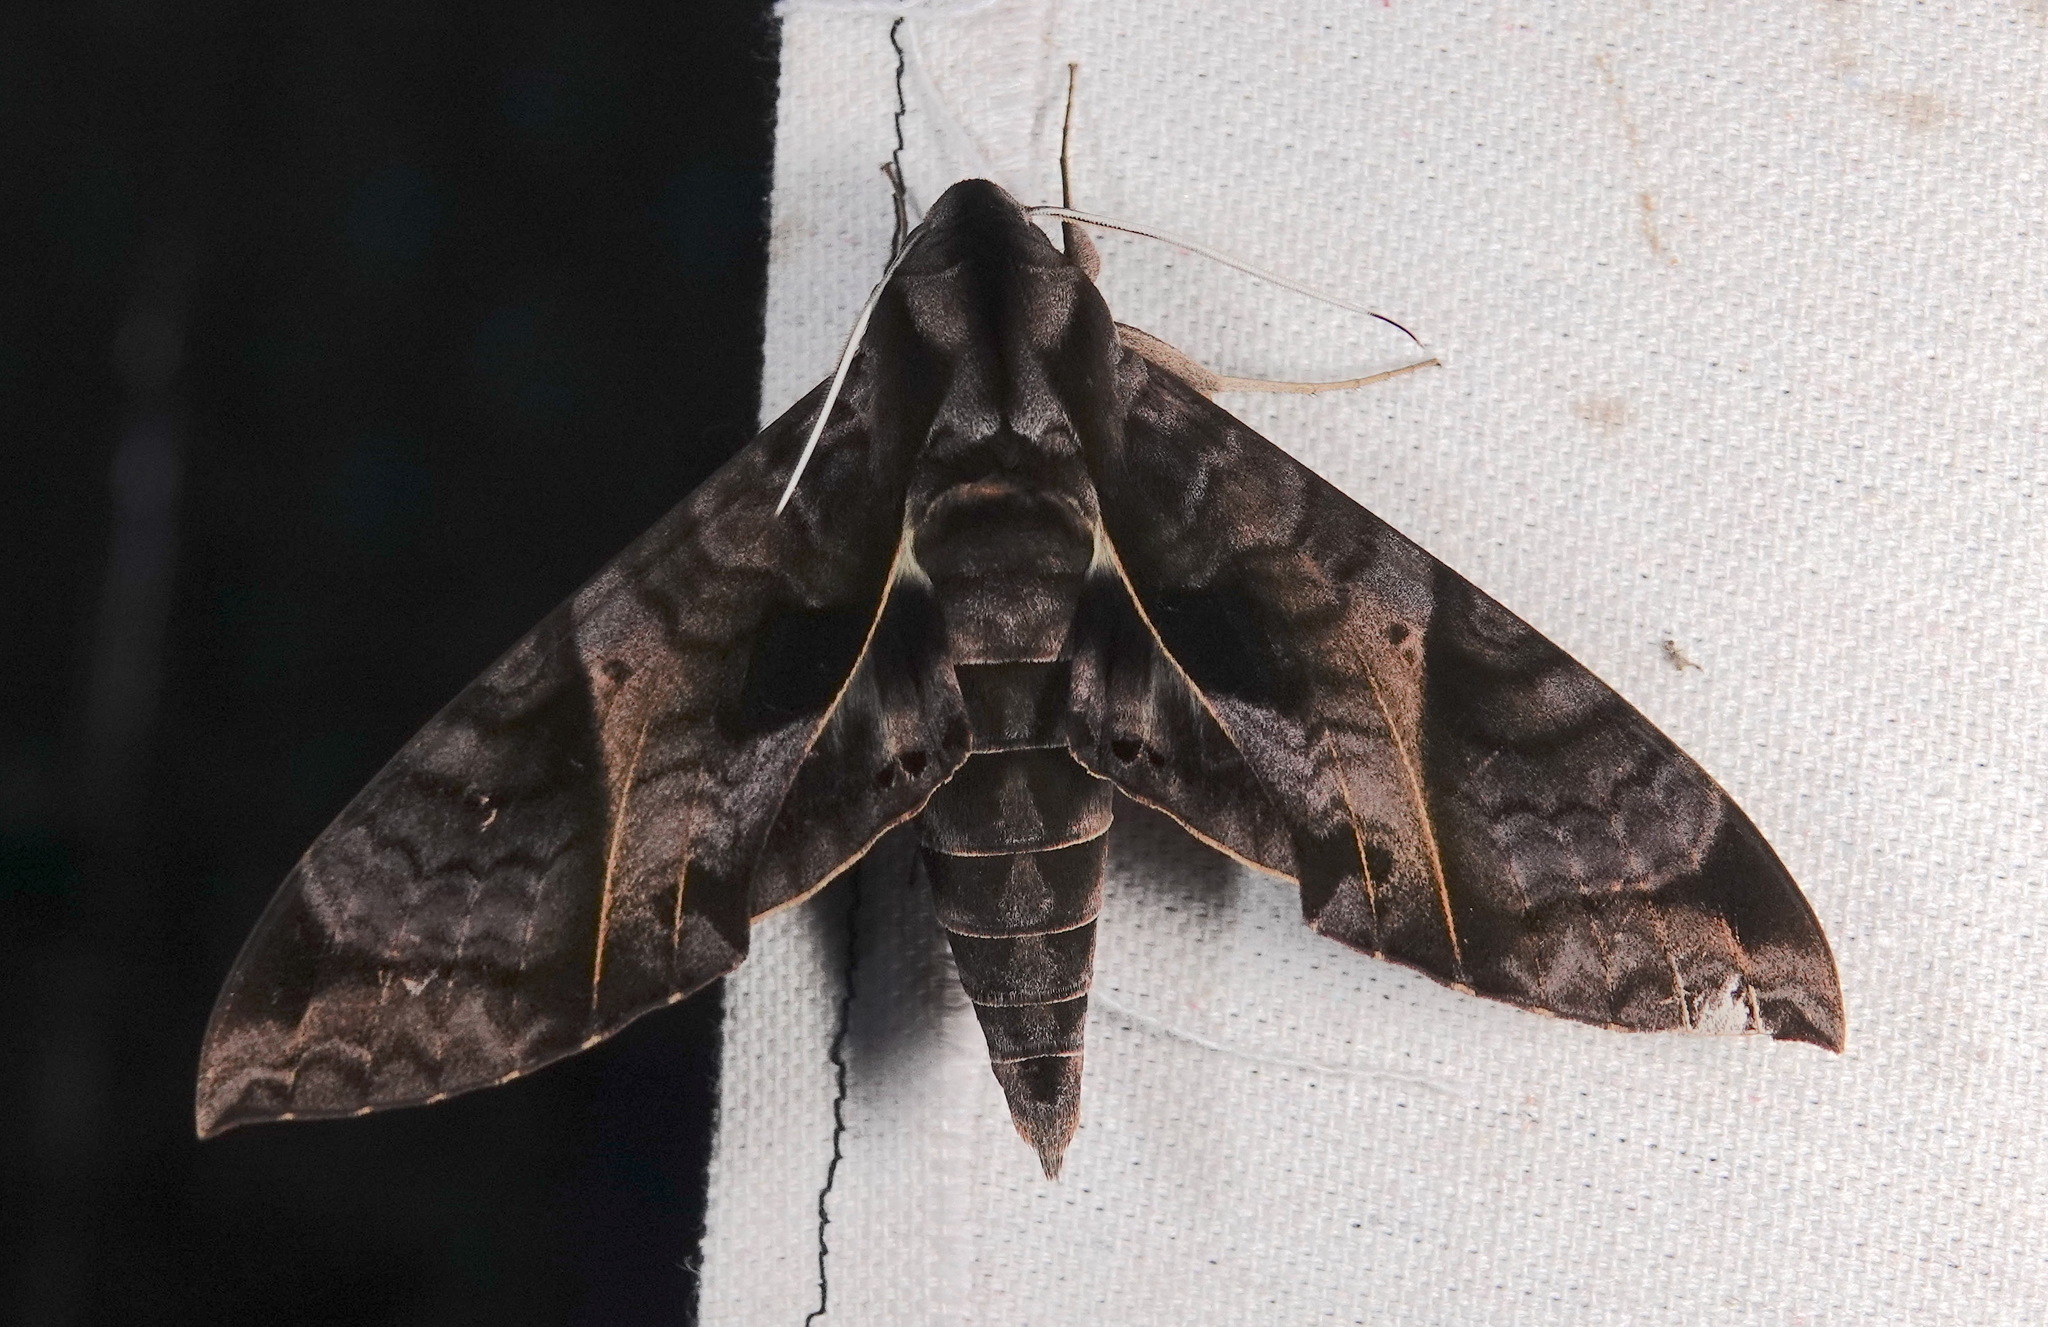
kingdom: Animalia
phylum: Arthropoda
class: Insecta
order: Lepidoptera
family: Sphingidae
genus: Eumorpha
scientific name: Eumorpha triangulum
